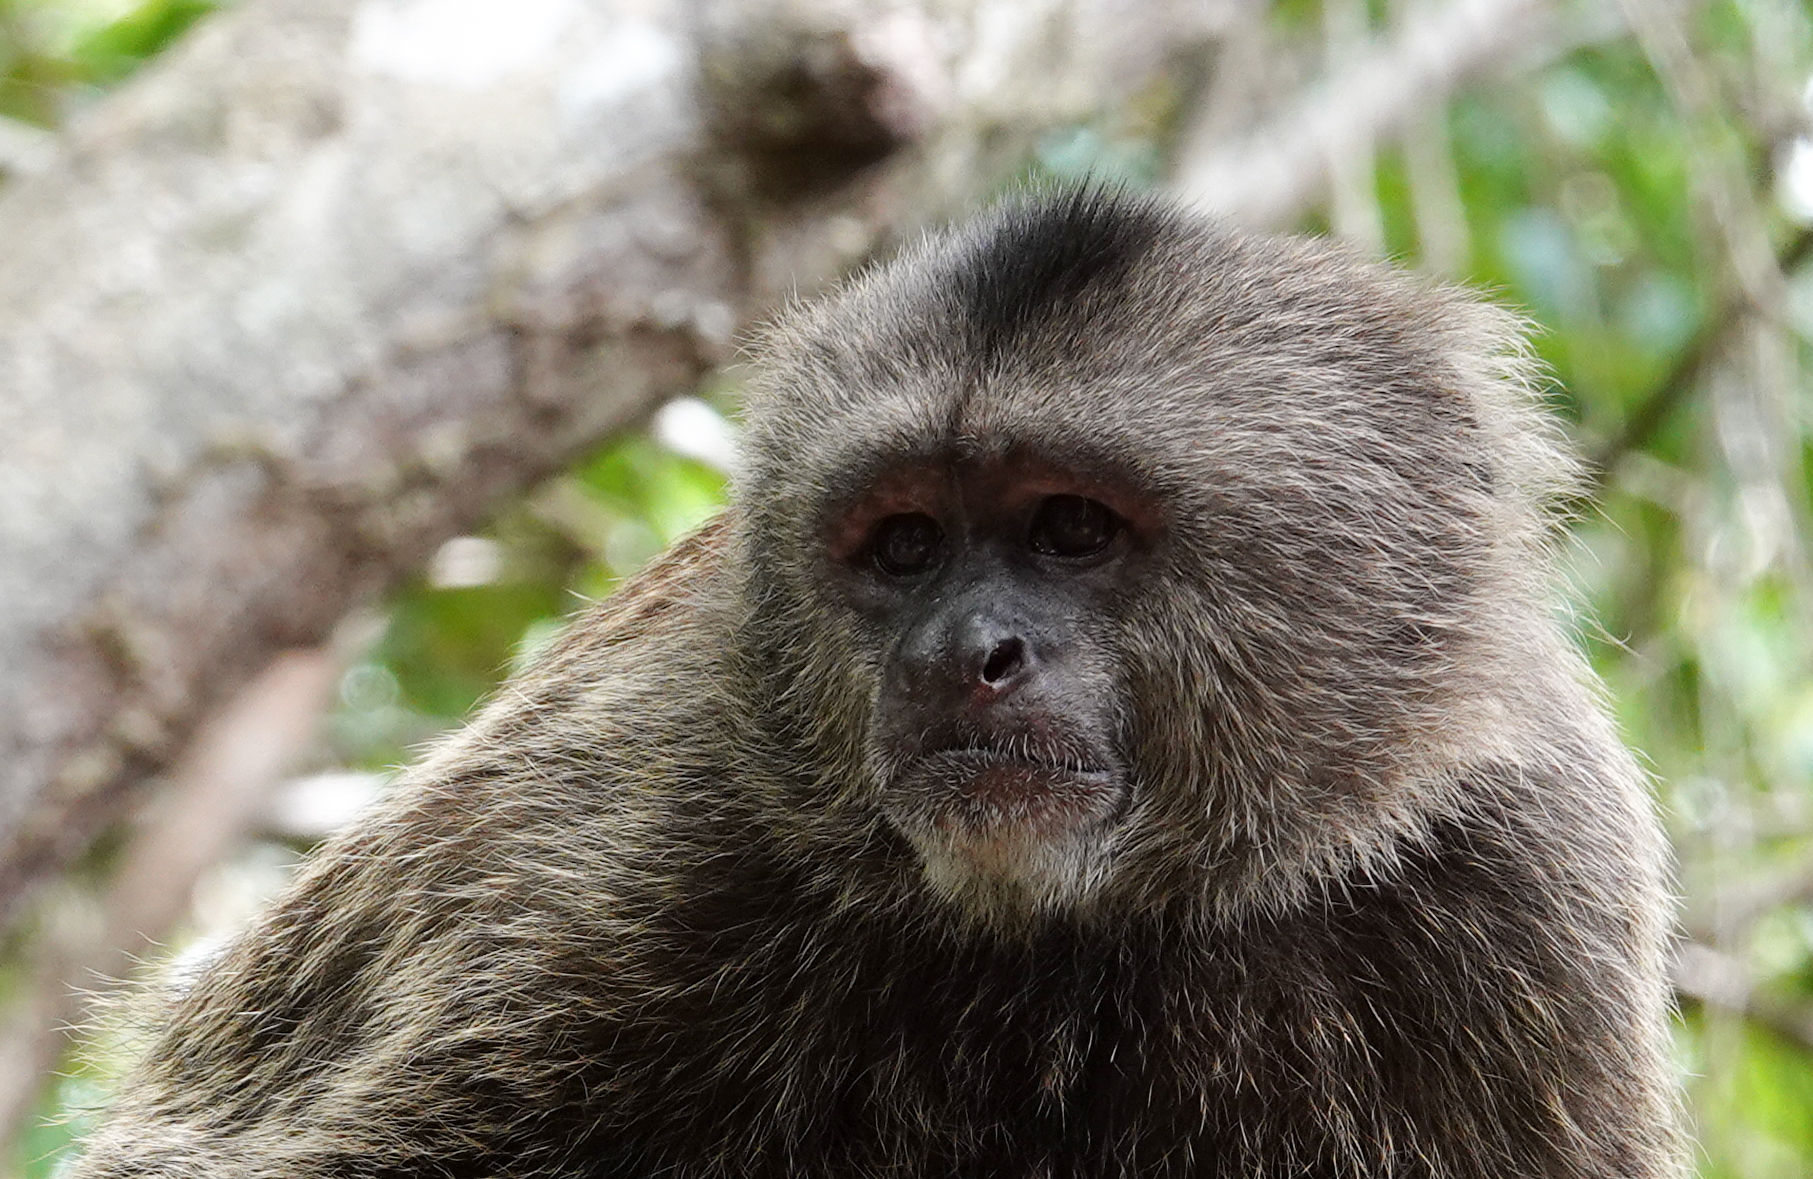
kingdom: Animalia
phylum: Chordata
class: Mammalia
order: Primates
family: Cebidae
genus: Cebus
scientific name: Cebus olivaceus
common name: Weeper capuchin
